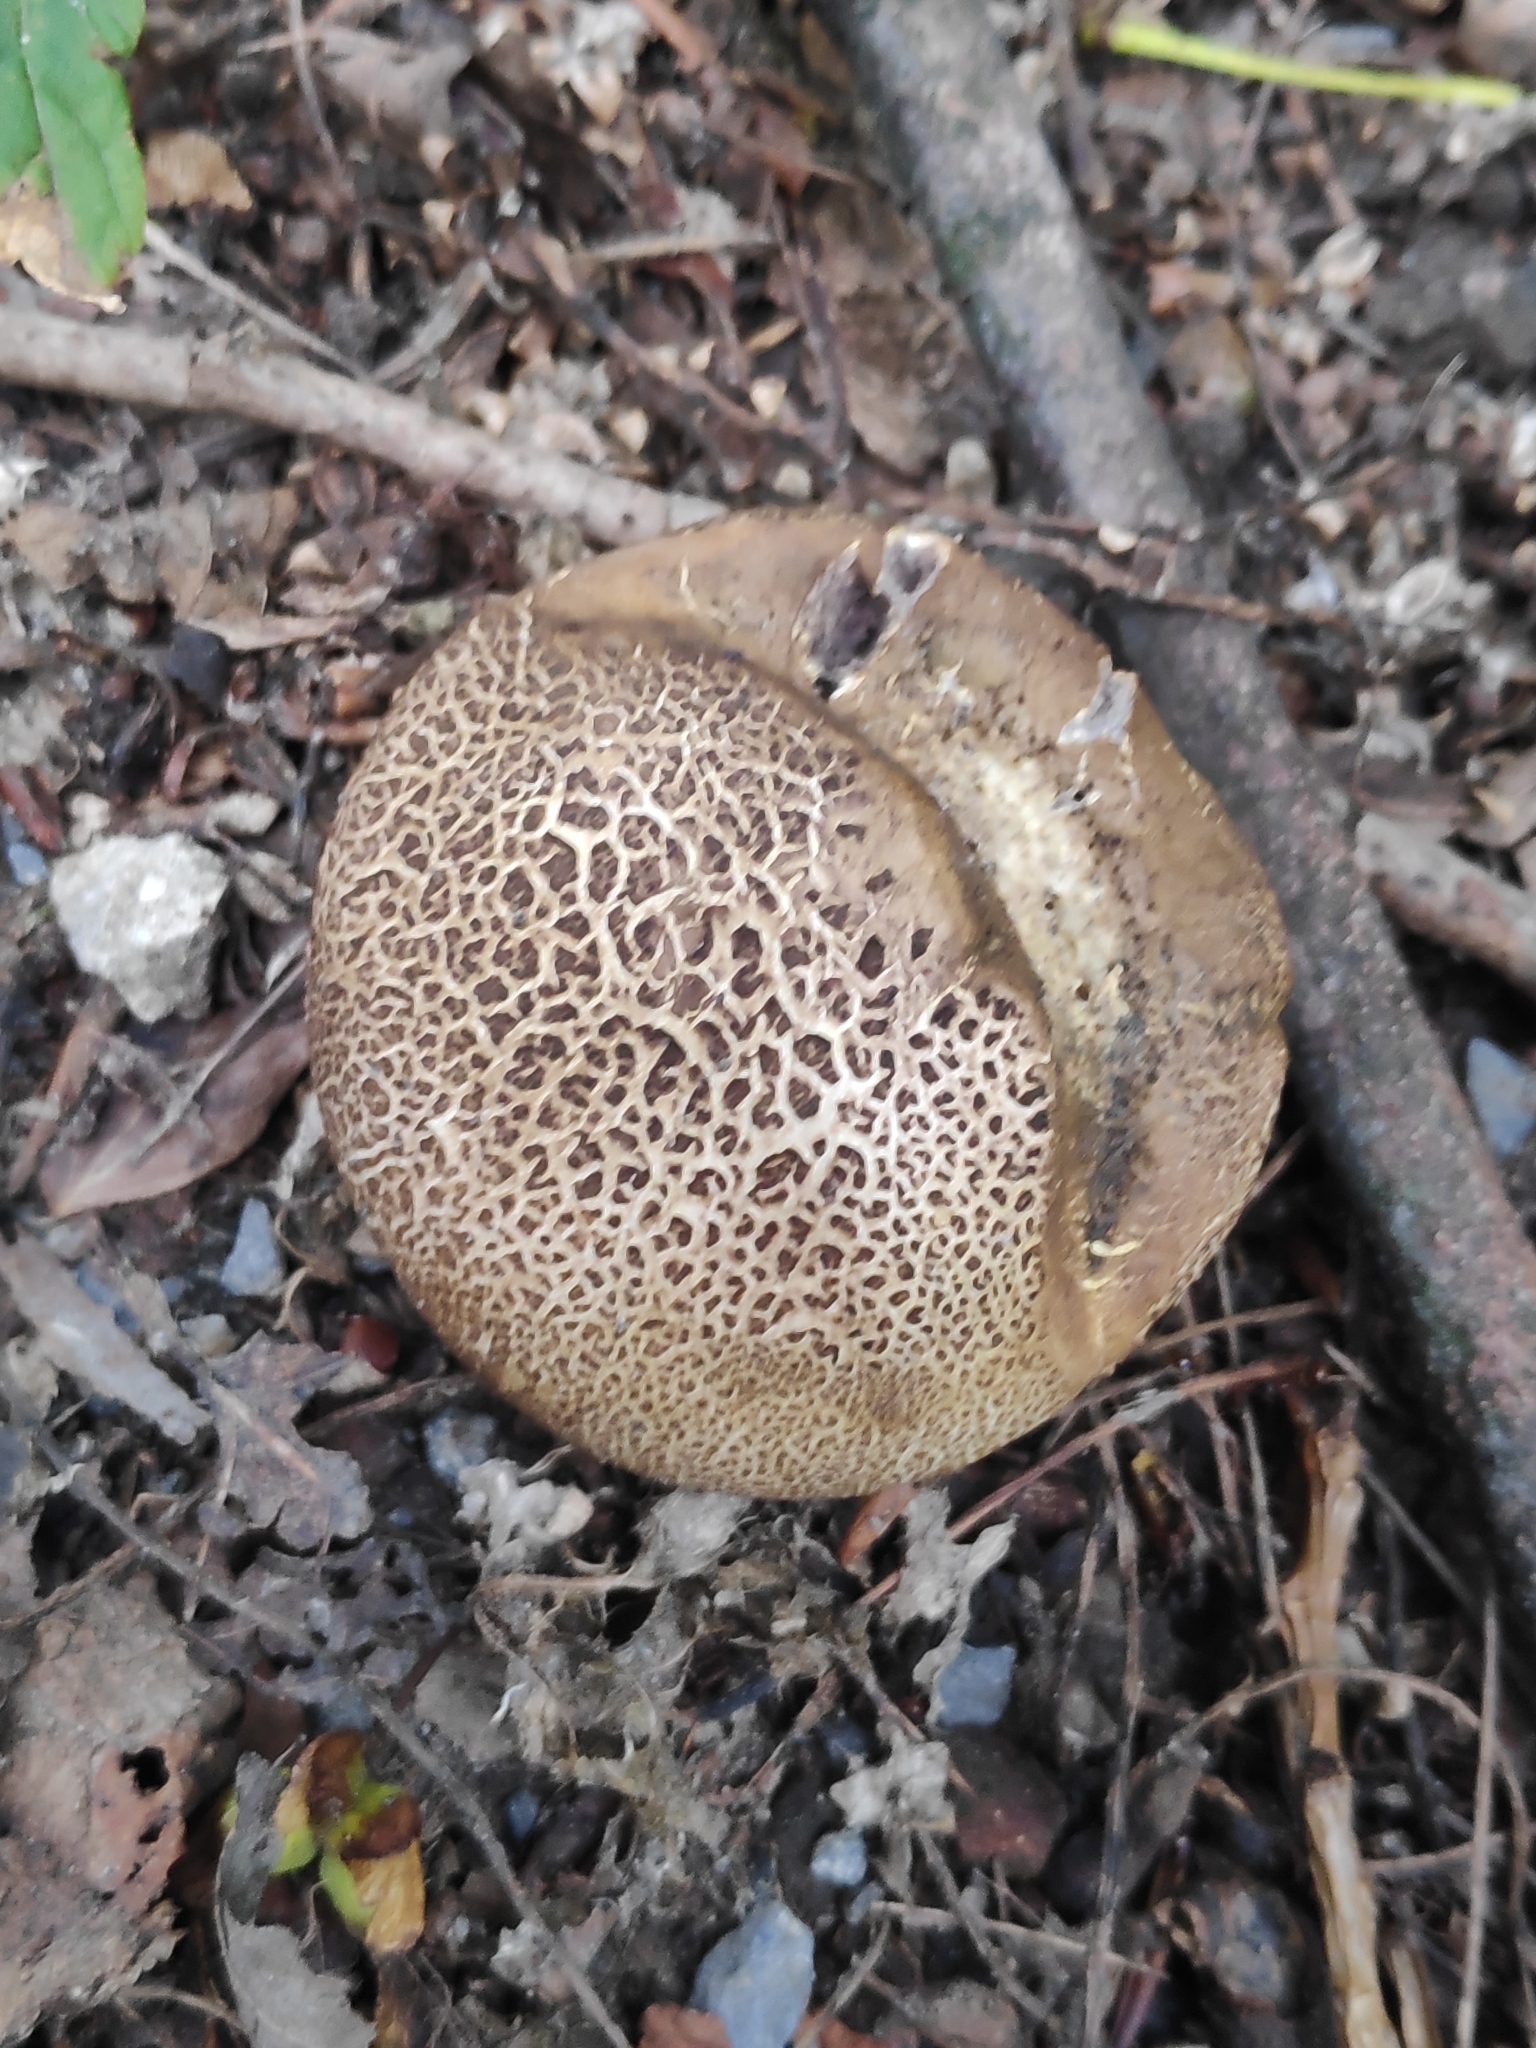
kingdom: Fungi
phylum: Basidiomycota
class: Agaricomycetes
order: Boletales
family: Sclerodermataceae
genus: Scleroderma
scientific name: Scleroderma citrinum
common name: Common earthball
